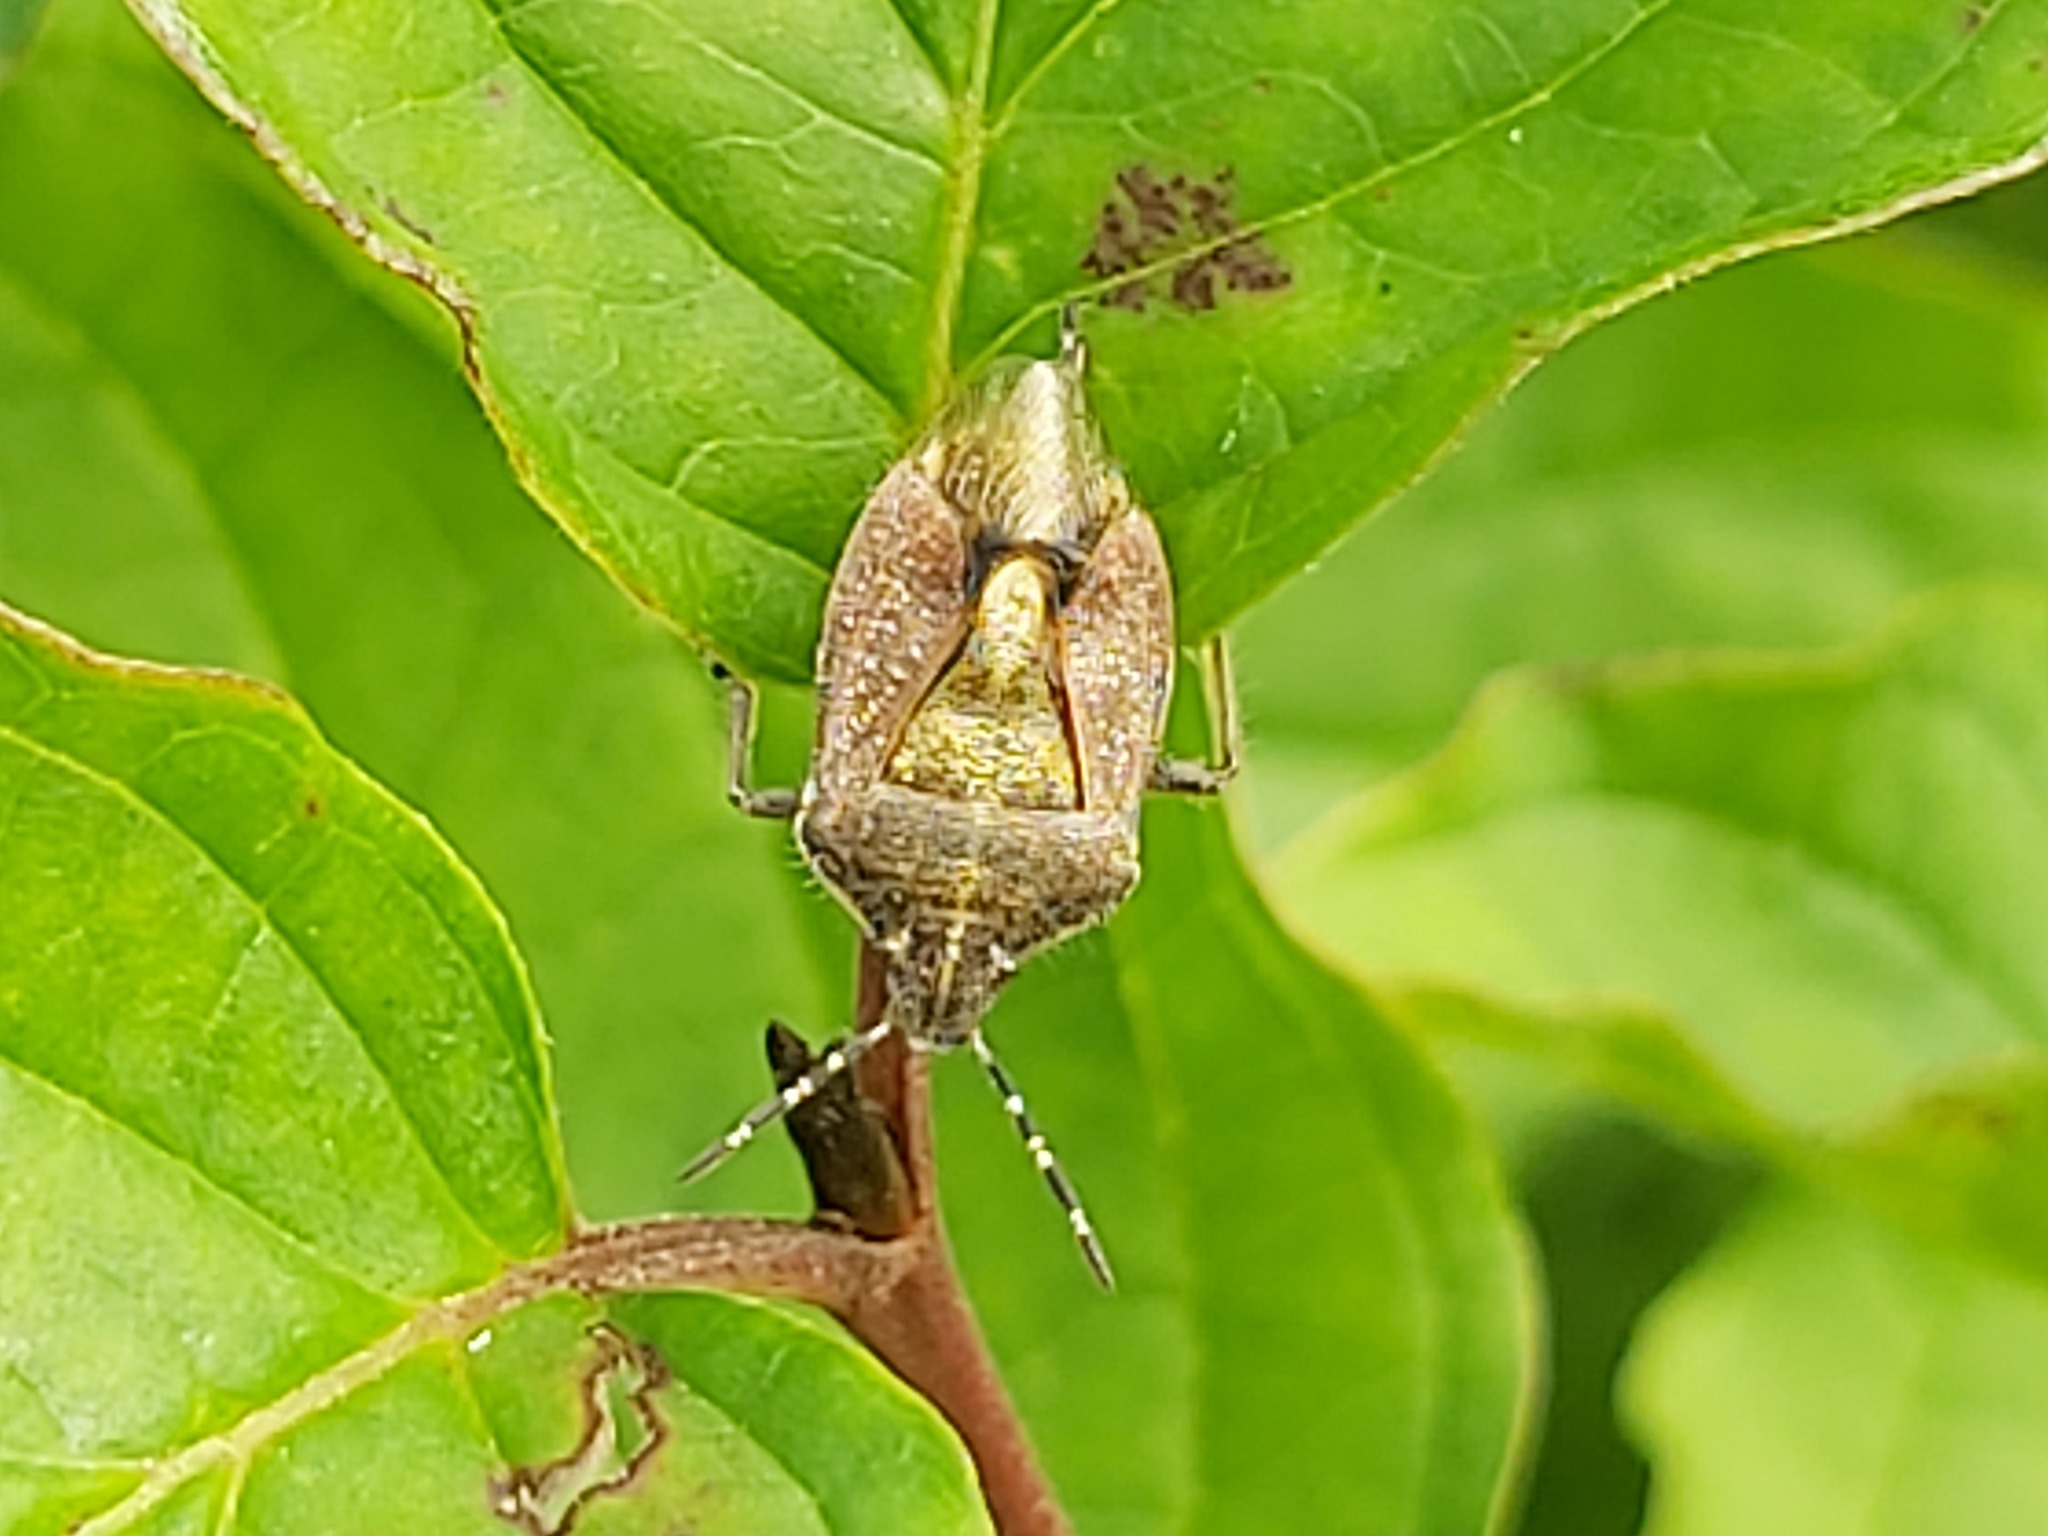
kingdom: Animalia
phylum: Arthropoda
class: Insecta
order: Hemiptera
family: Pentatomidae
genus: Dolycoris
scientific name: Dolycoris baccarum
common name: Sloe bug
